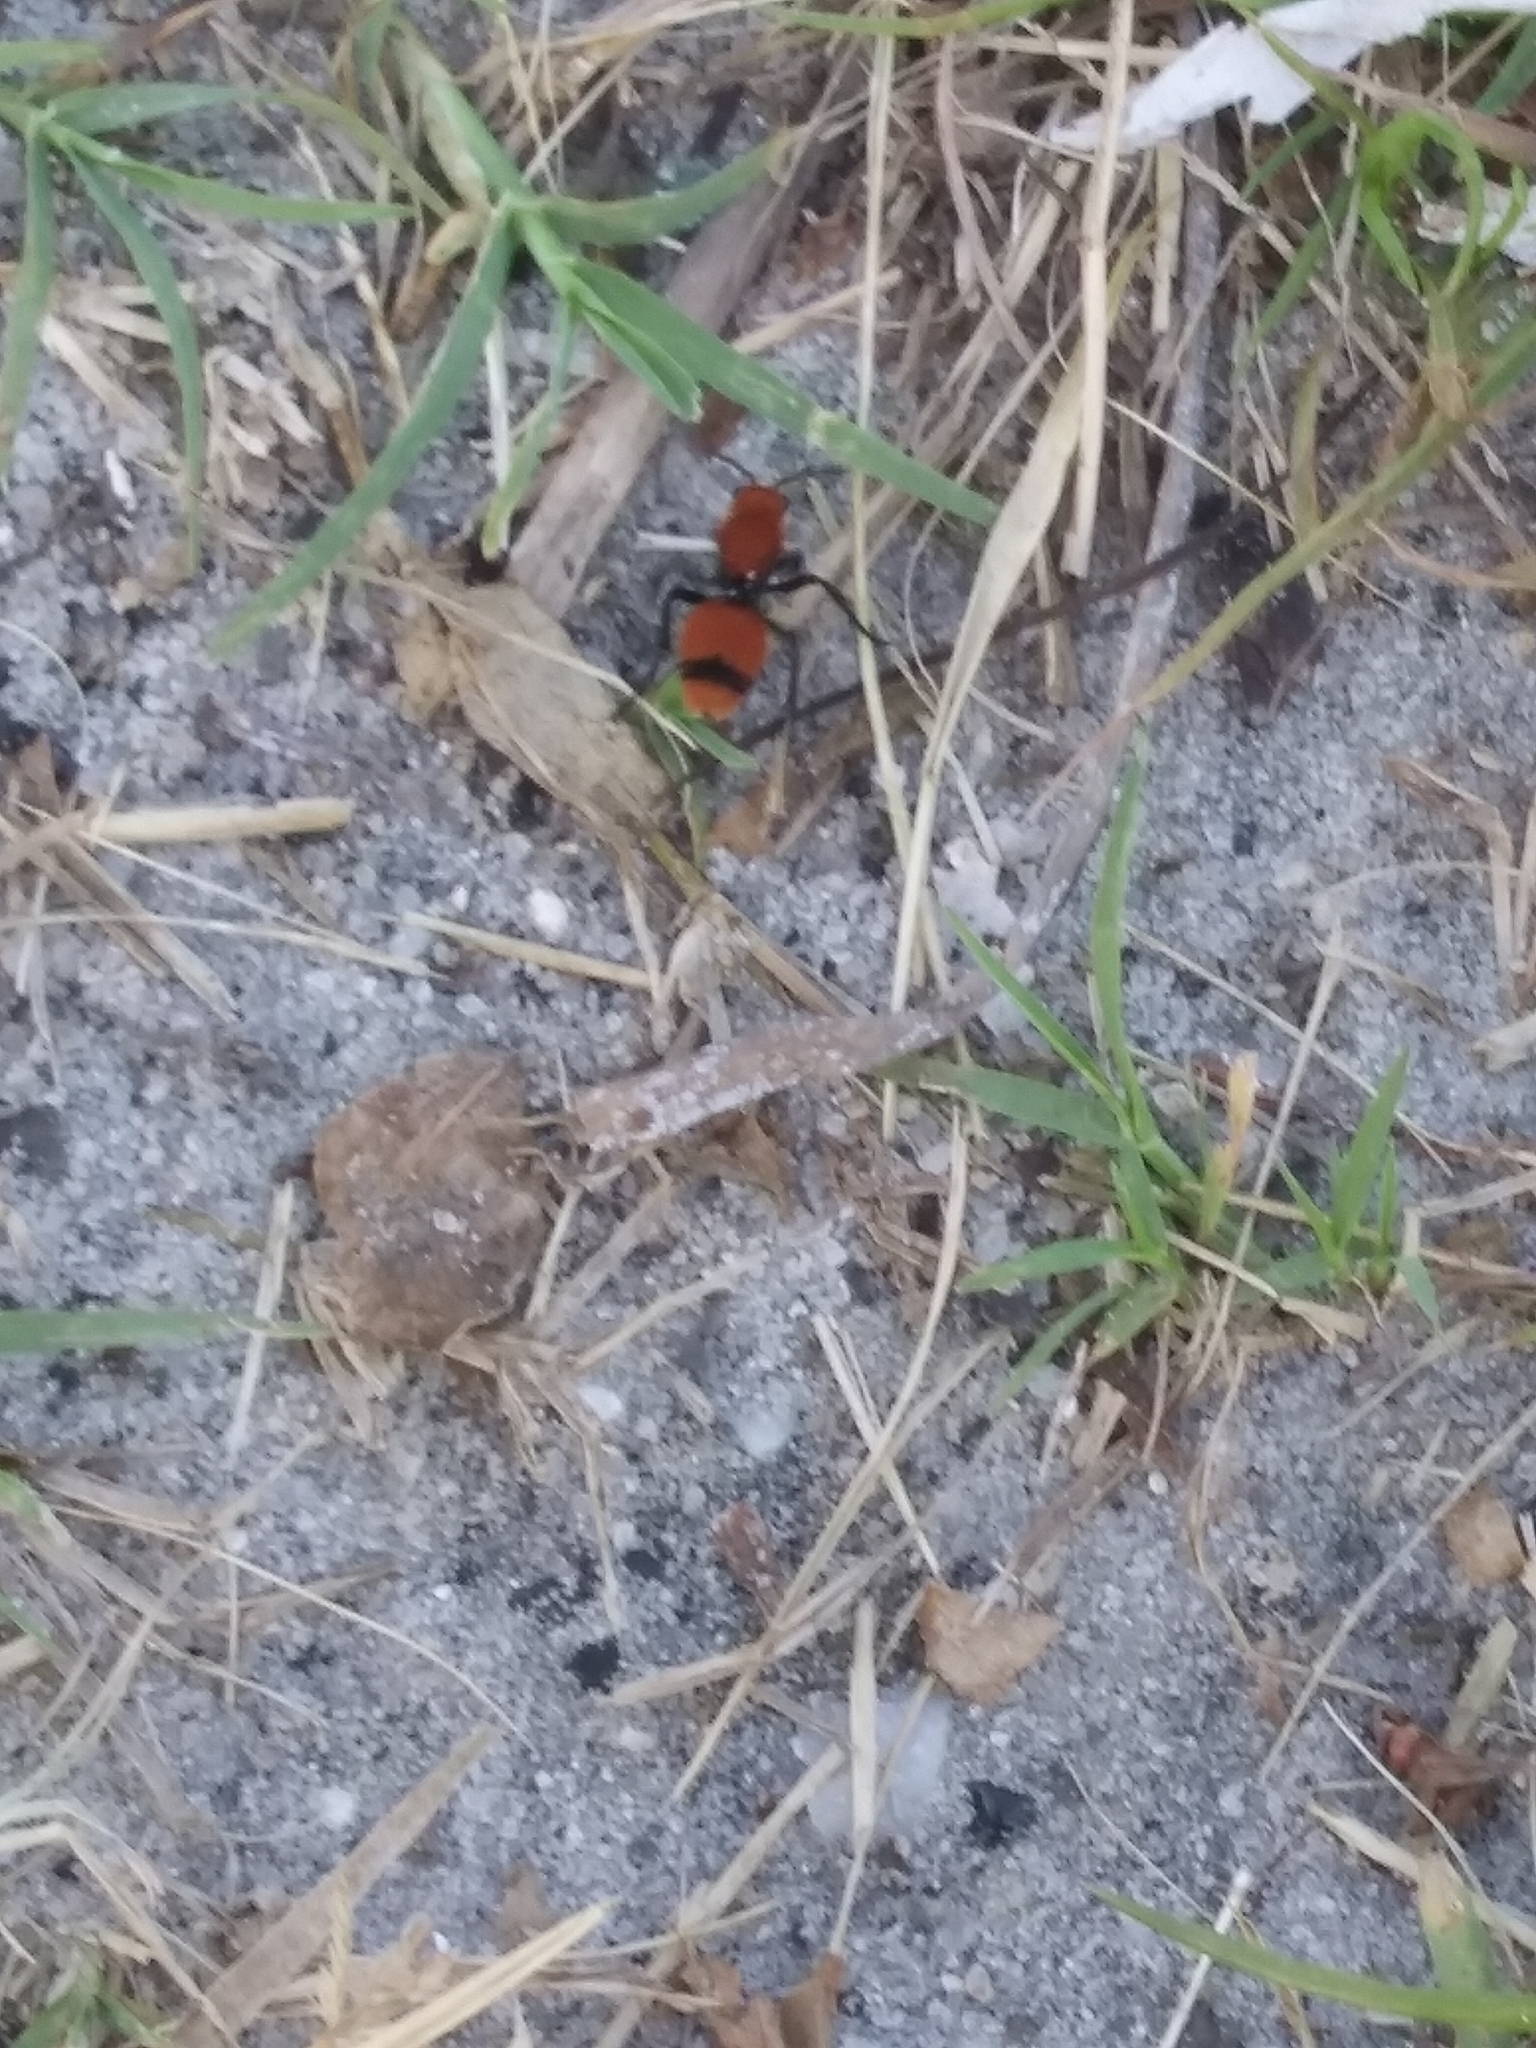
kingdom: Animalia
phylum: Arthropoda
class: Insecta
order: Hymenoptera
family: Mutillidae
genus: Dasymutilla
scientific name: Dasymutilla occidentalis
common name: Common eastern velvet ant
